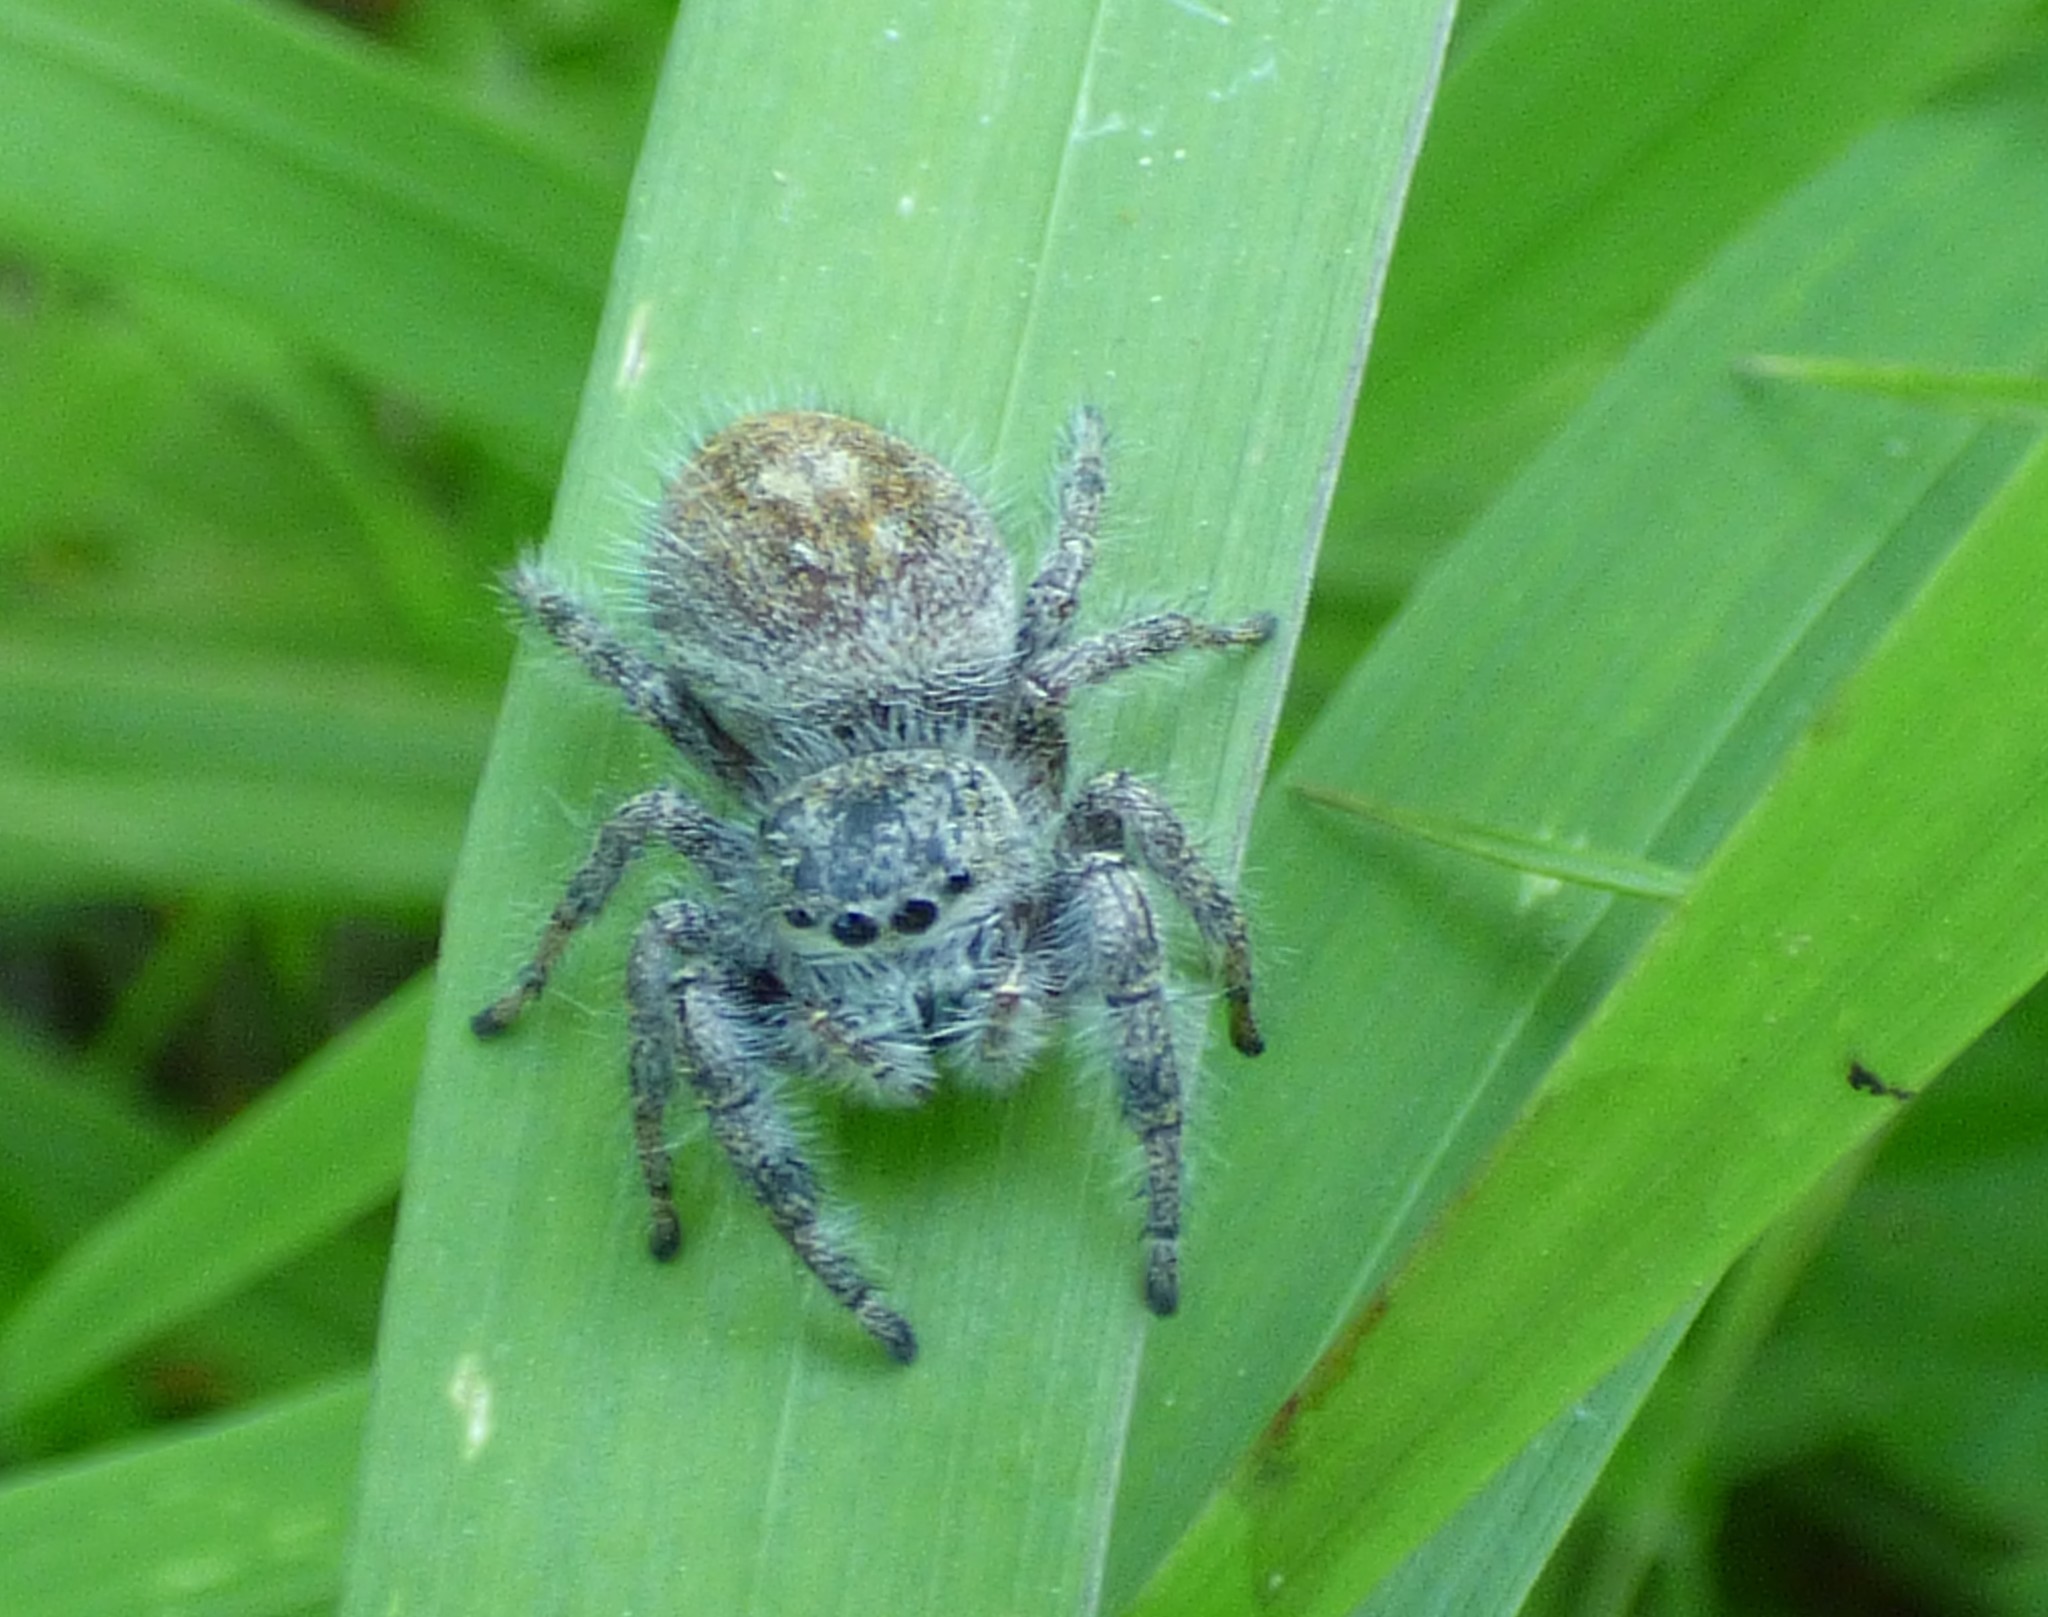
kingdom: Animalia
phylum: Arthropoda
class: Arachnida
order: Araneae
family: Salticidae
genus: Phidippus
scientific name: Phidippus princeps
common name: Grayish jumping spider
